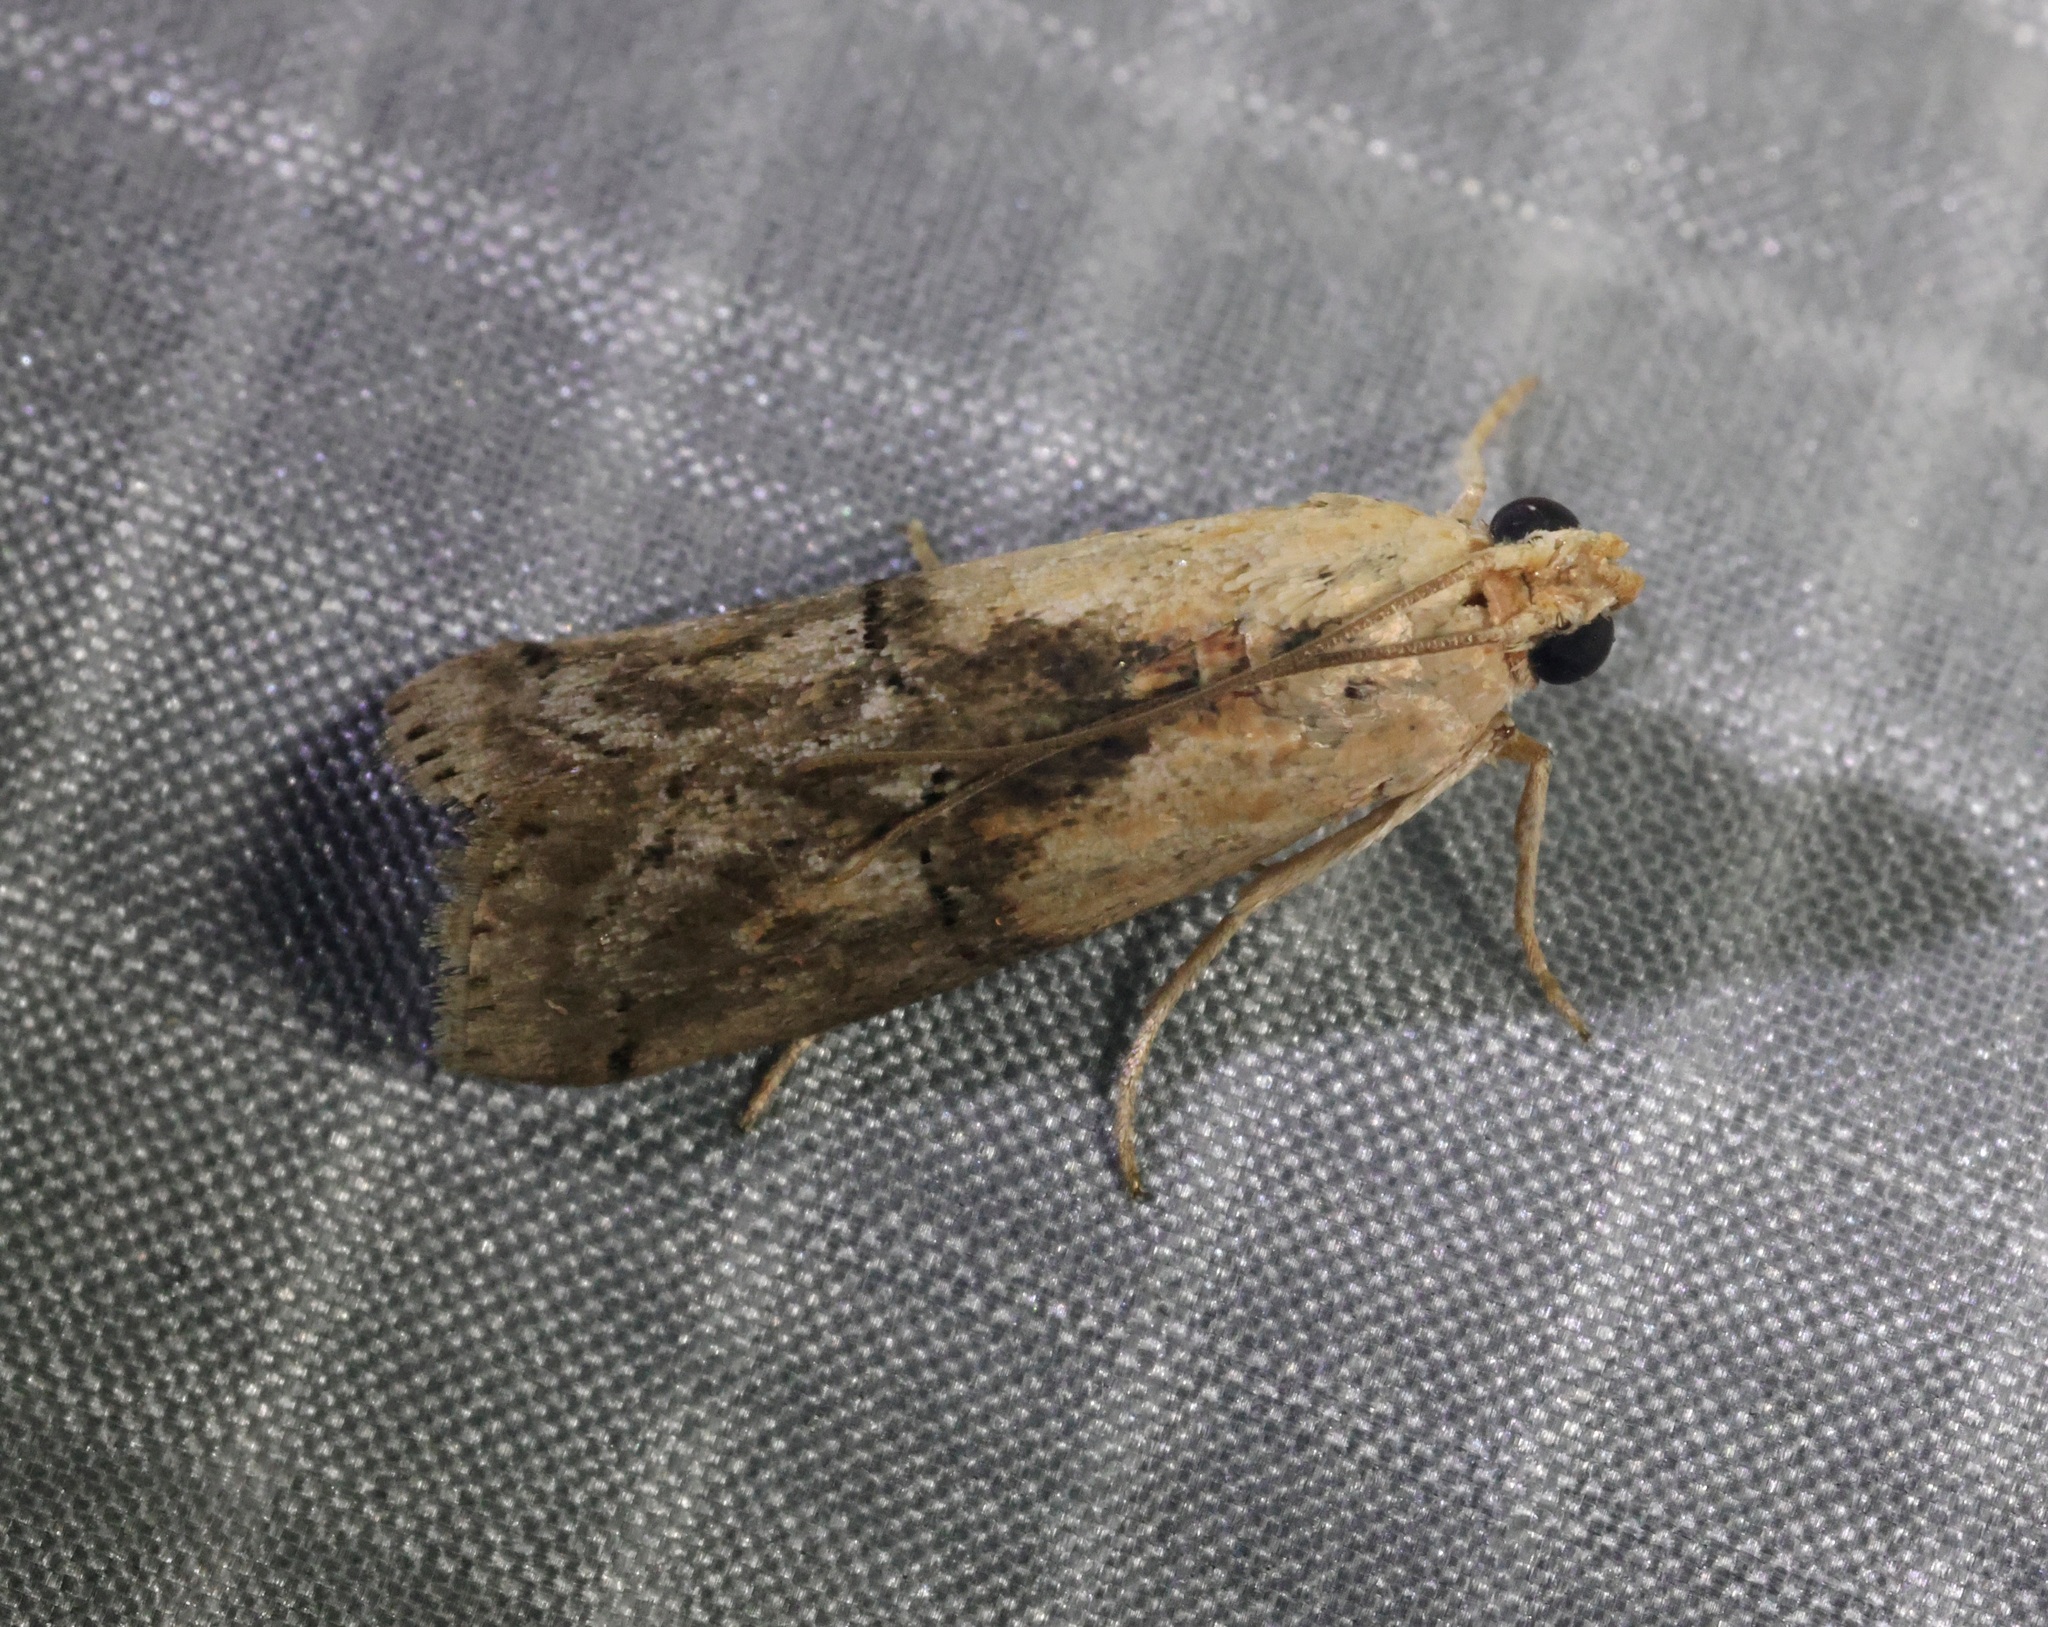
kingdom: Animalia
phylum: Arthropoda
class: Insecta
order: Lepidoptera
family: Pyralidae
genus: Nephopterix
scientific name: Nephopterix ochribasalis
